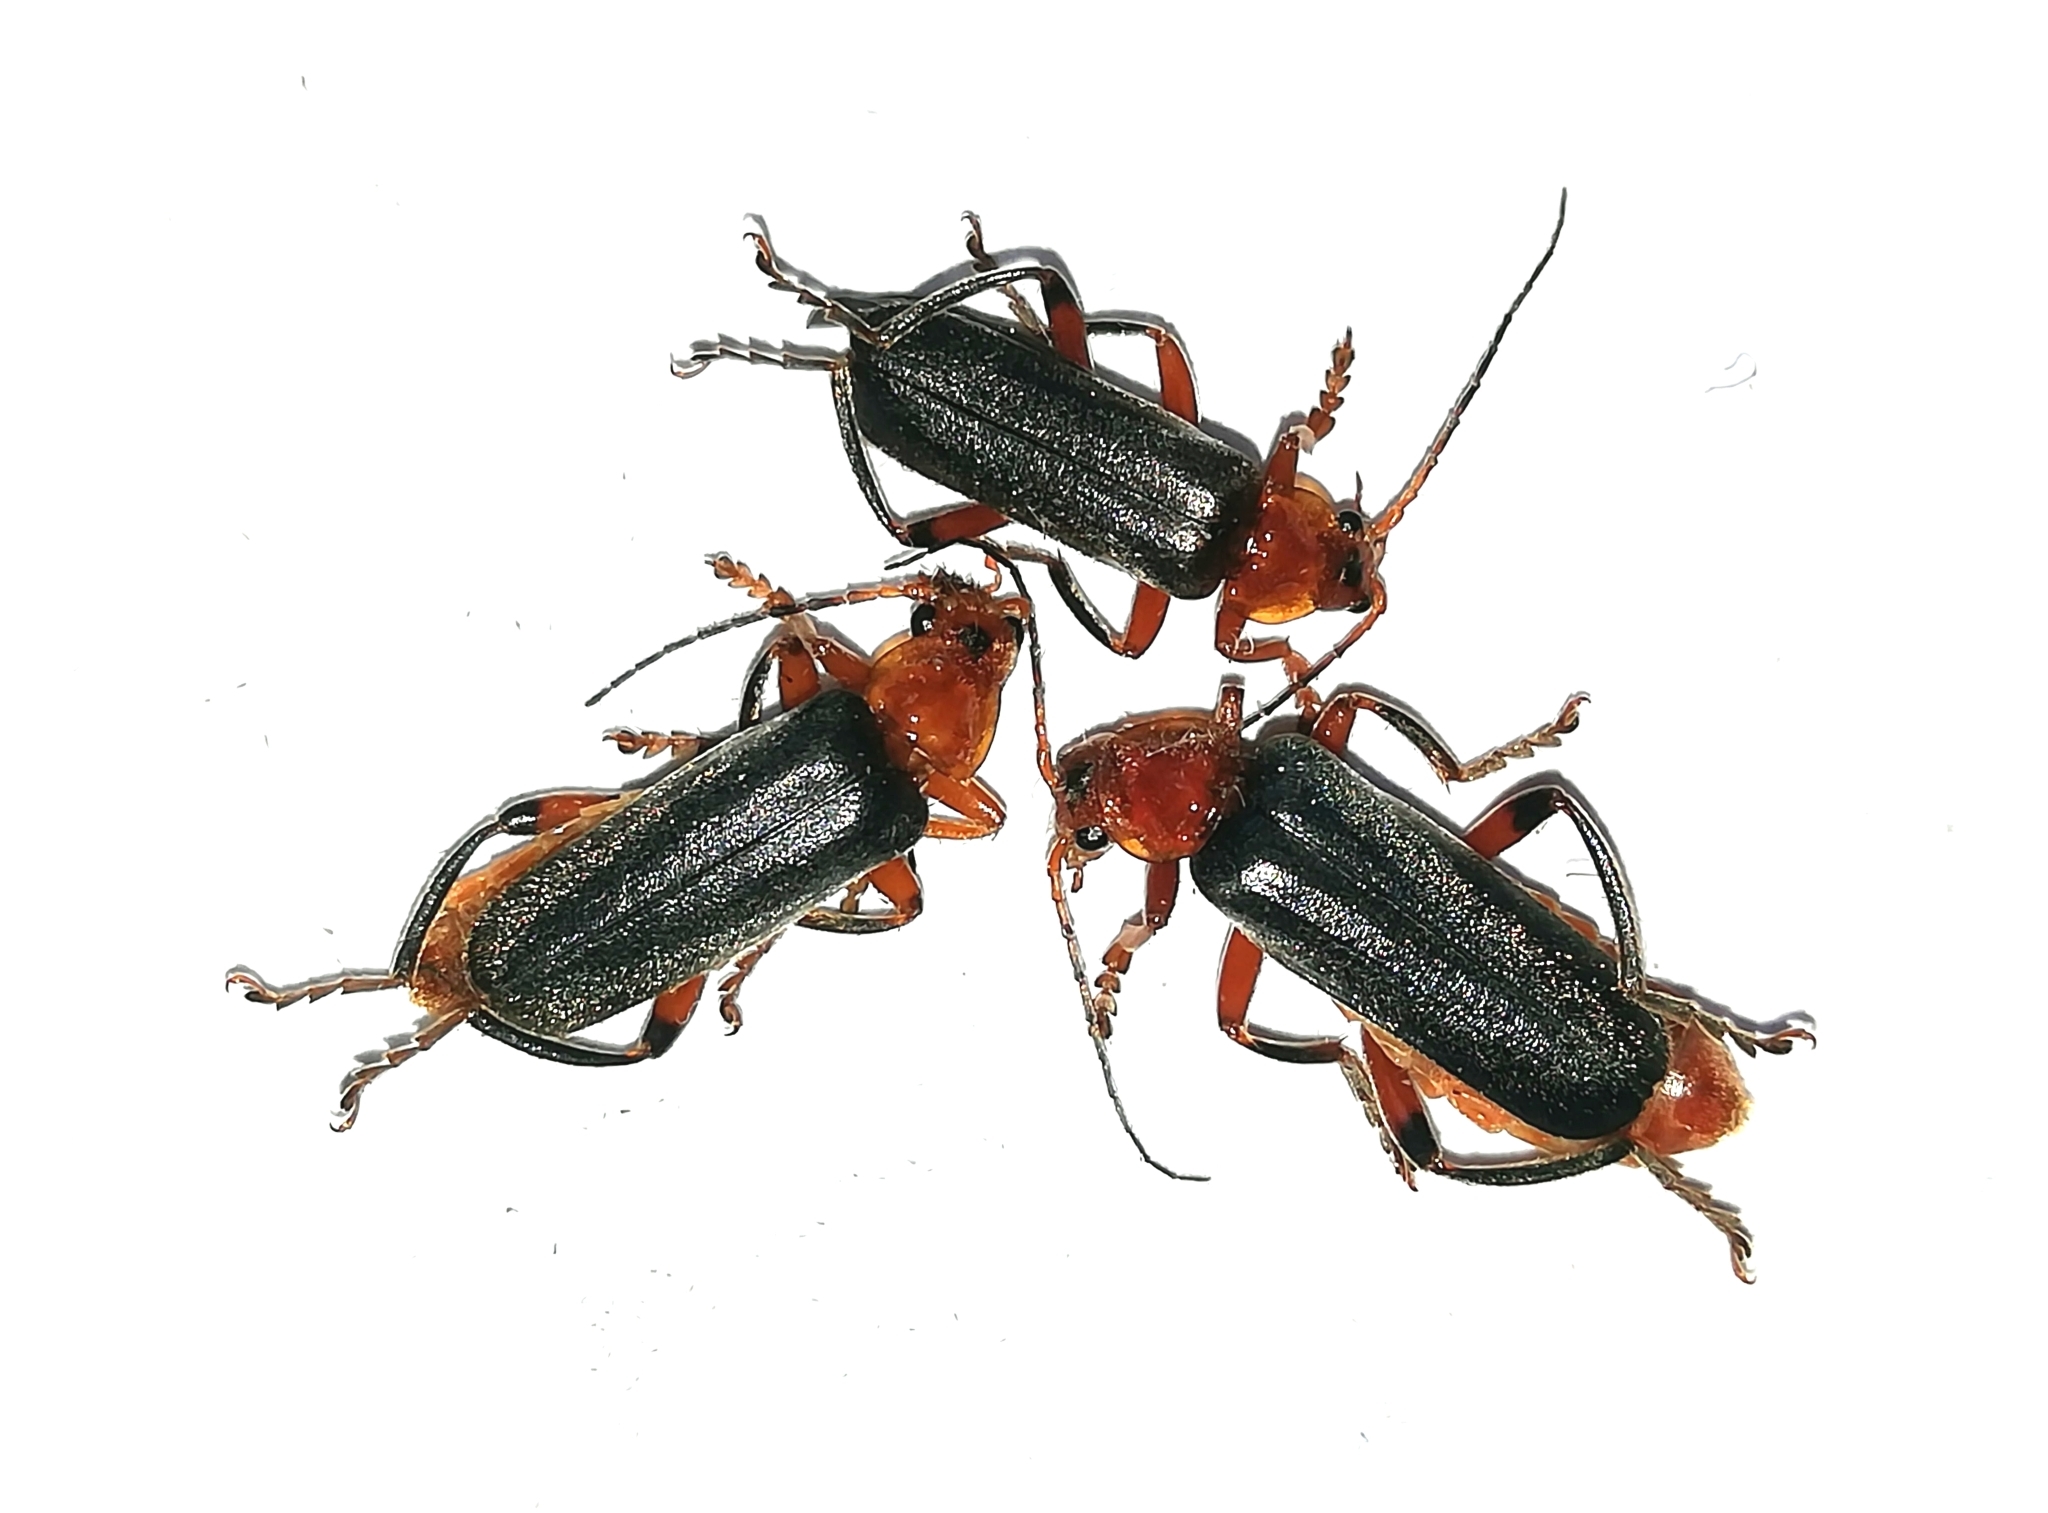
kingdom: Animalia
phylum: Arthropoda
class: Insecta
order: Coleoptera
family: Cantharidae
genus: Cantharis
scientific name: Cantharis livida
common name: Livid soldier beetle
